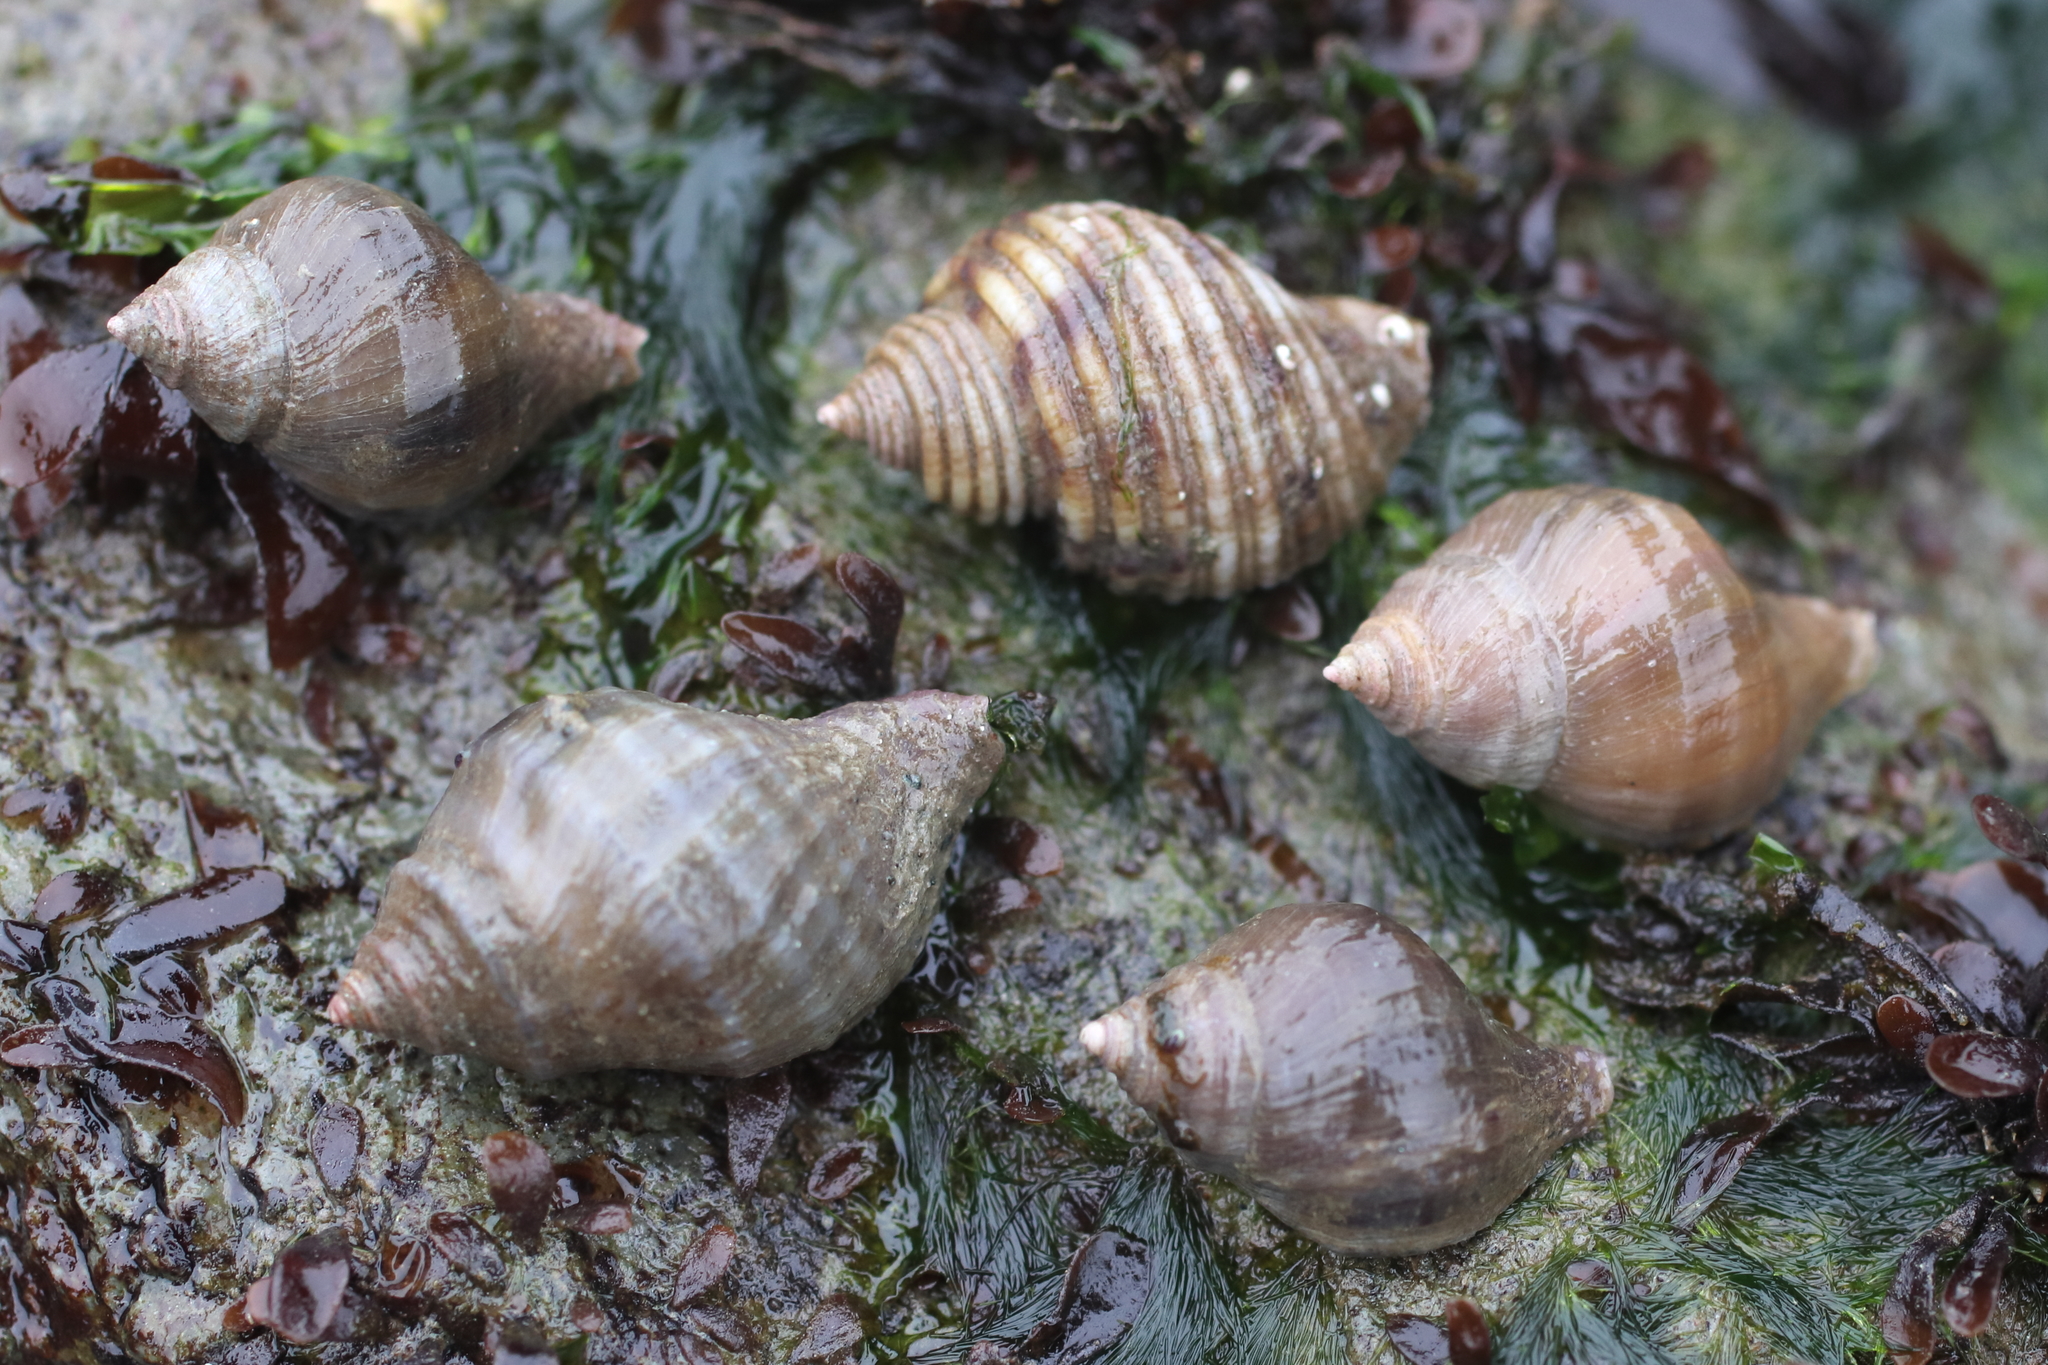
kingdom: Animalia
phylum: Mollusca
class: Gastropoda
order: Neogastropoda
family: Muricidae
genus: Nucella
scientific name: Nucella lamellosa
